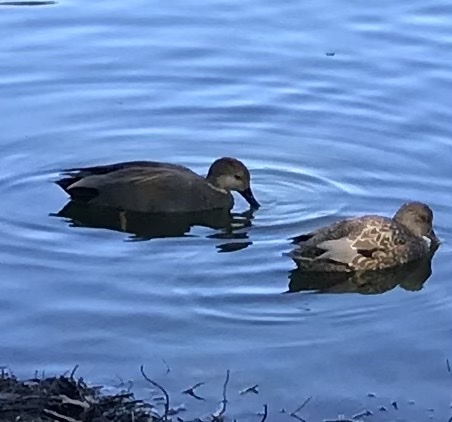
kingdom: Animalia
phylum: Chordata
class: Aves
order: Anseriformes
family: Anatidae
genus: Mareca
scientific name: Mareca strepera
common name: Gadwall
